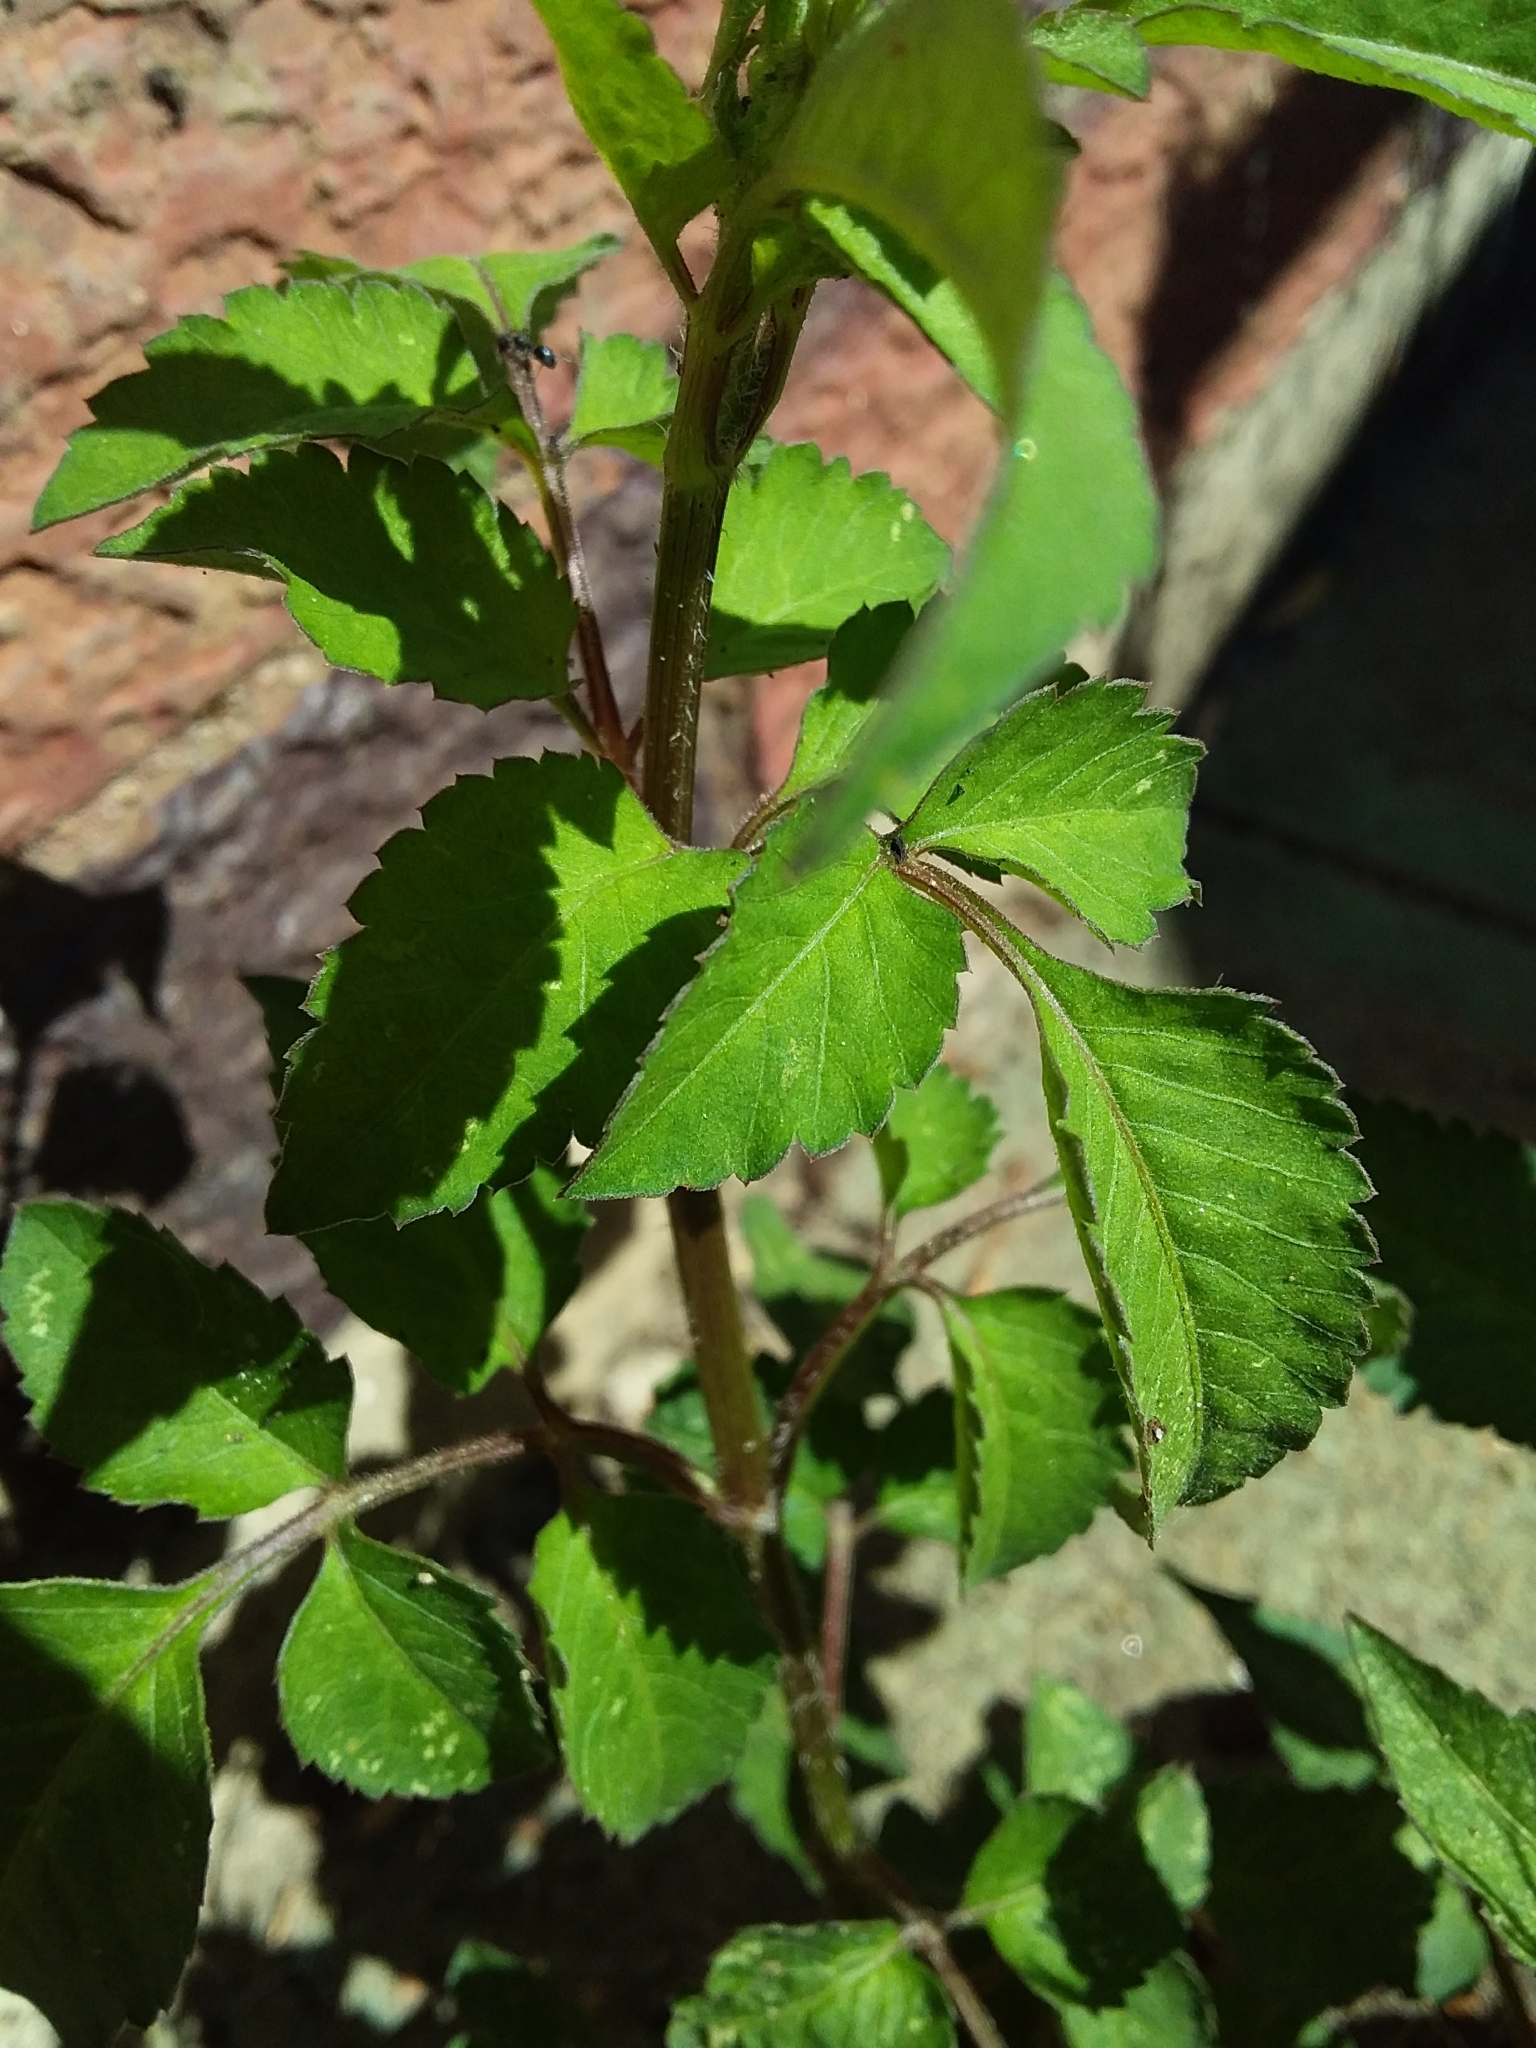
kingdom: Plantae
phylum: Tracheophyta
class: Magnoliopsida
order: Asterales
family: Asteraceae
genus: Bidens
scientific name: Bidens pilosa
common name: Black-jack
